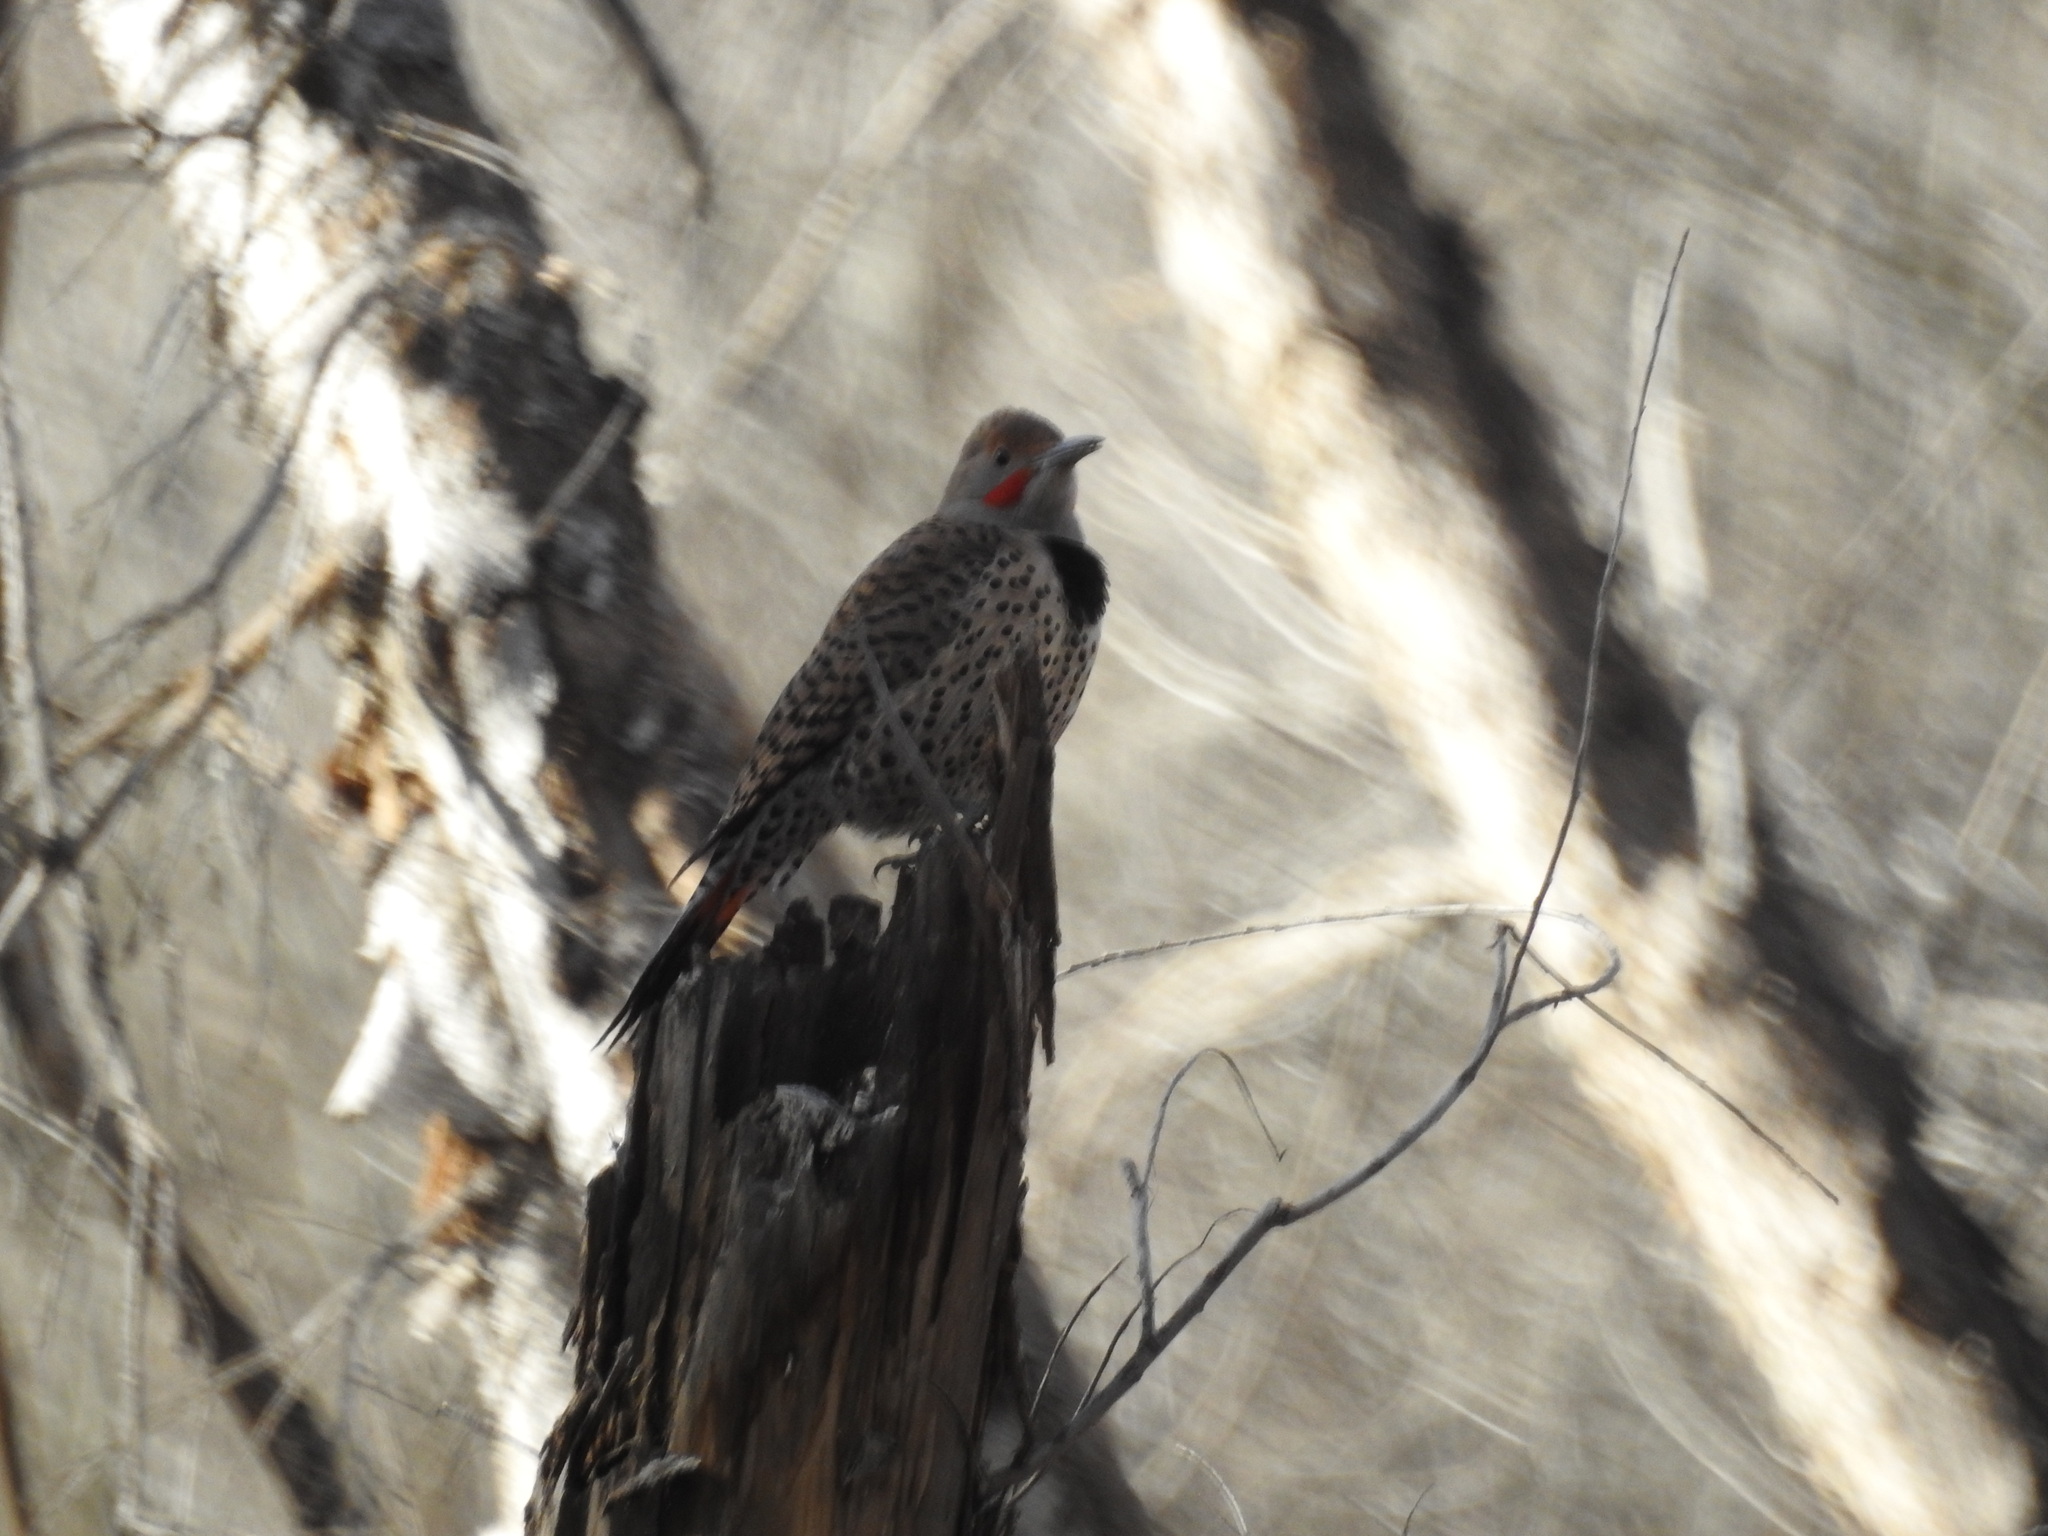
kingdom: Animalia
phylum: Chordata
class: Aves
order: Piciformes
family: Picidae
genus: Colaptes
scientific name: Colaptes auratus
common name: Northern flicker
